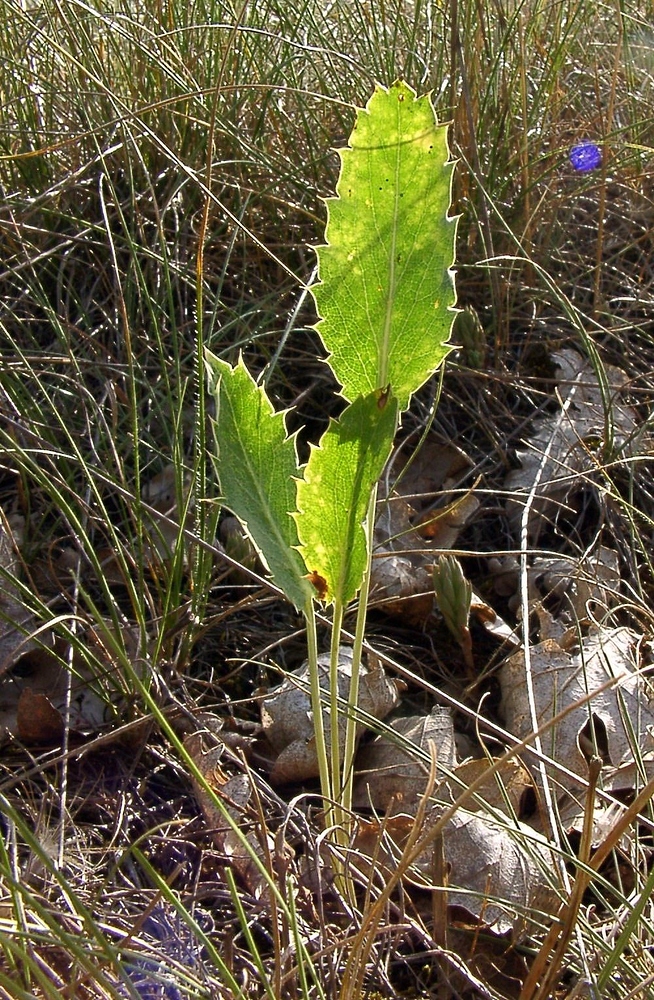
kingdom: Plantae
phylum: Tracheophyta
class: Magnoliopsida
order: Apiales
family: Apiaceae
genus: Eryngium
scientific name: Eryngium campestre
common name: Field eryngo
